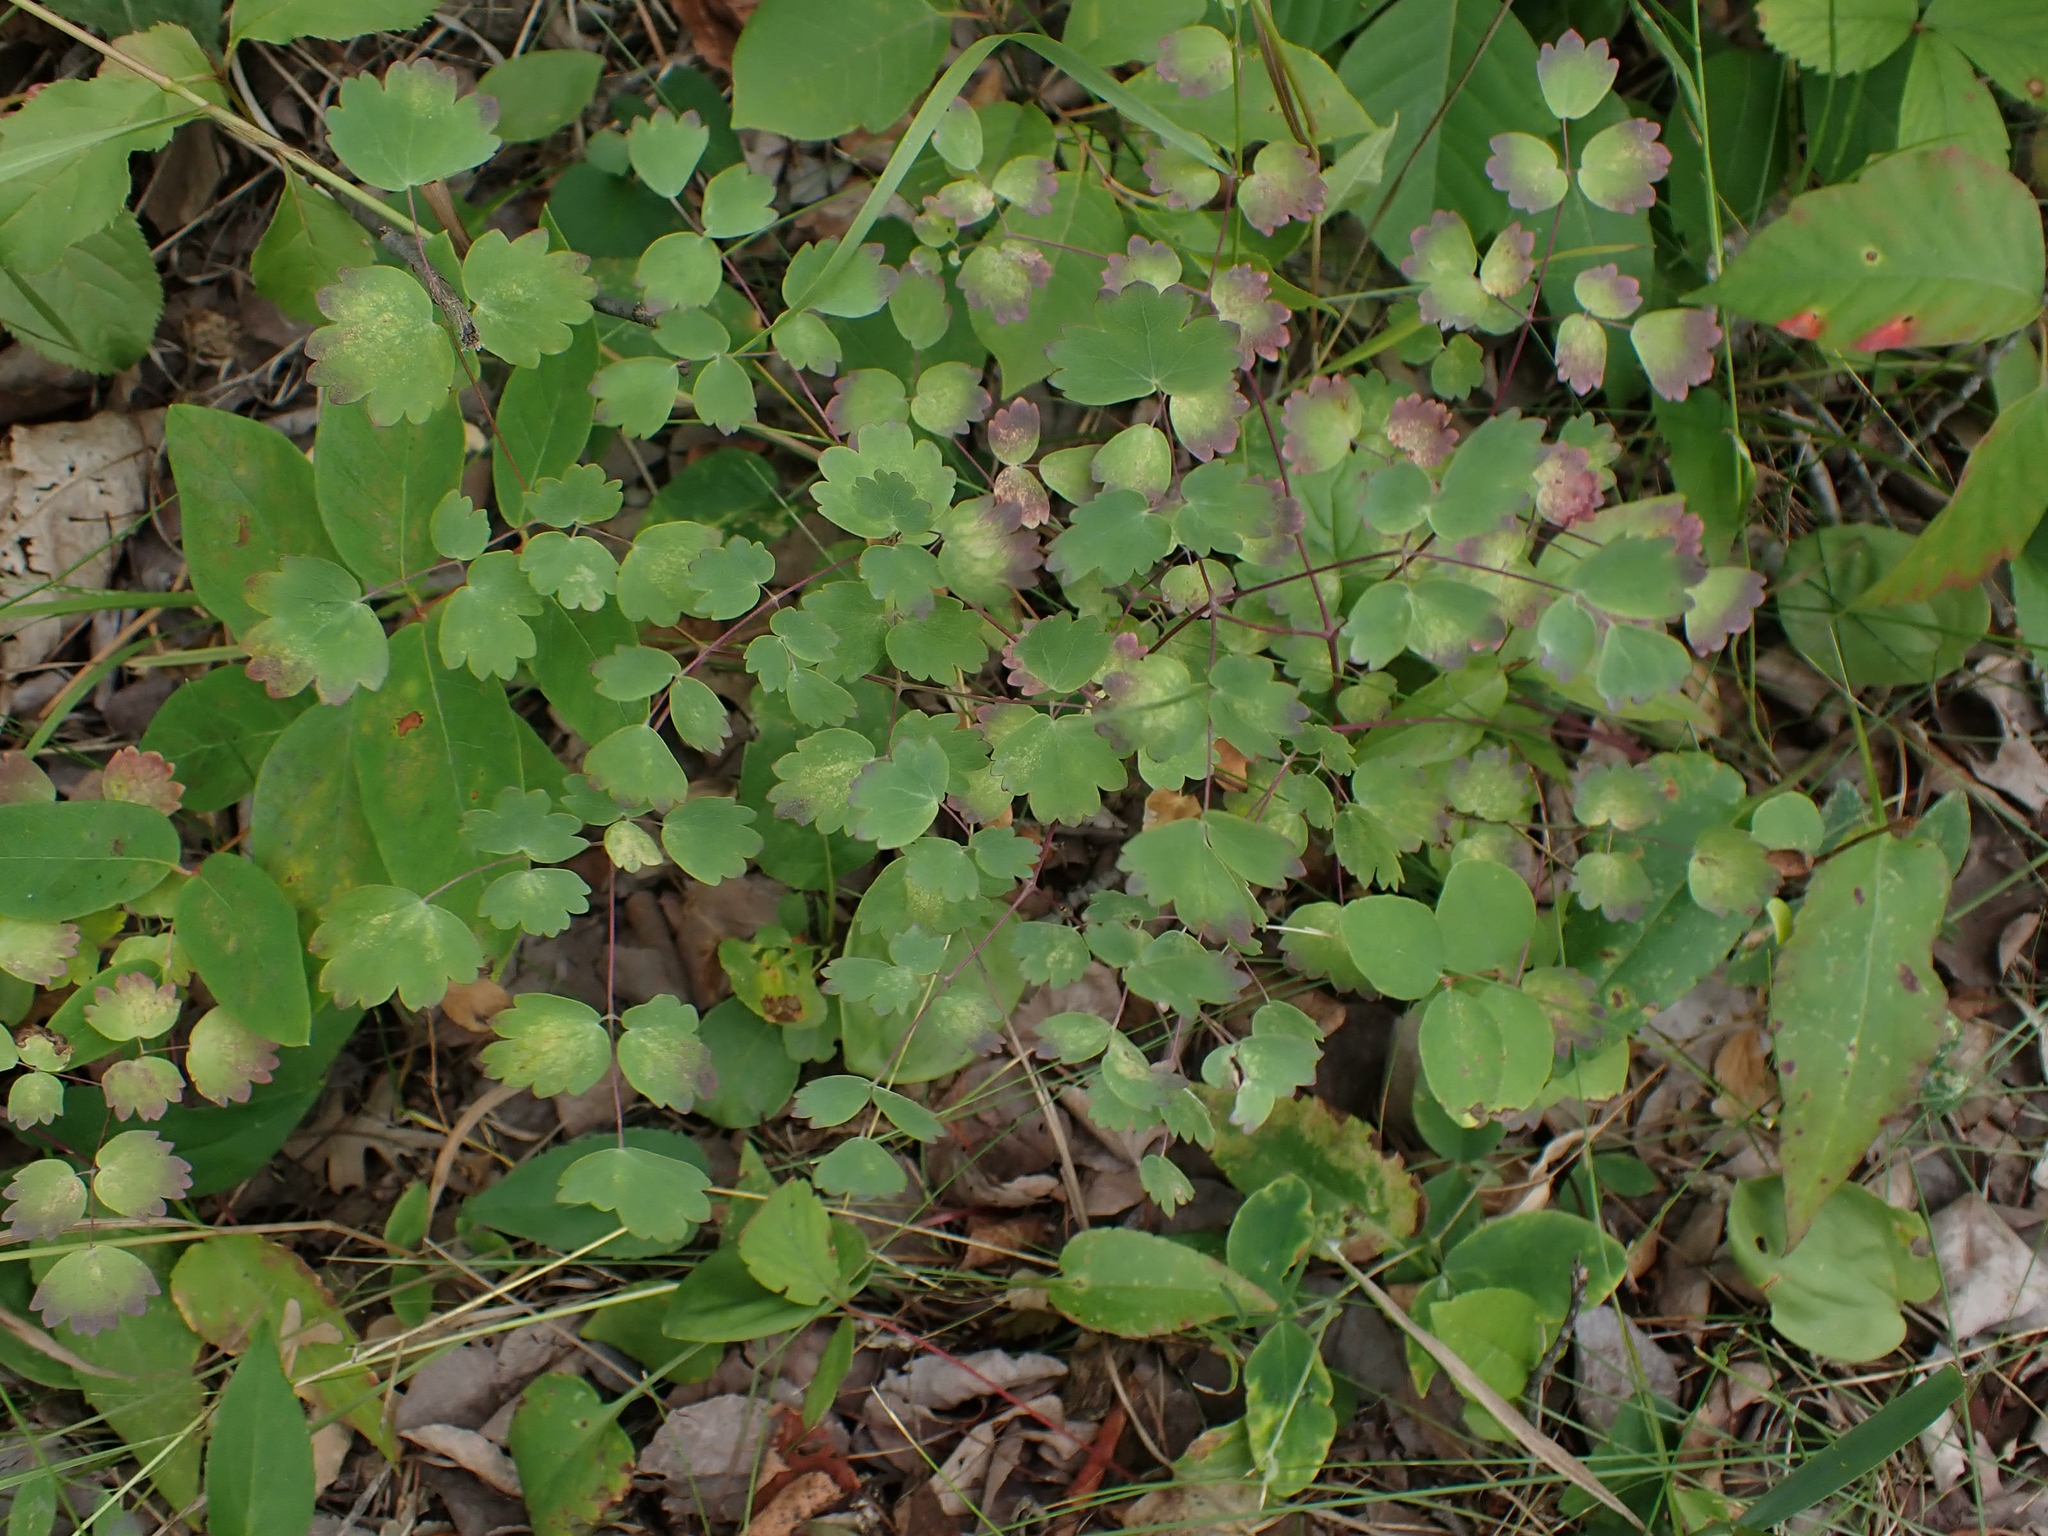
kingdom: Plantae
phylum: Tracheophyta
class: Magnoliopsida
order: Ranunculales
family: Ranunculaceae
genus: Thalictrum
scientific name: Thalictrum venulosum
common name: Early meadow-rue
